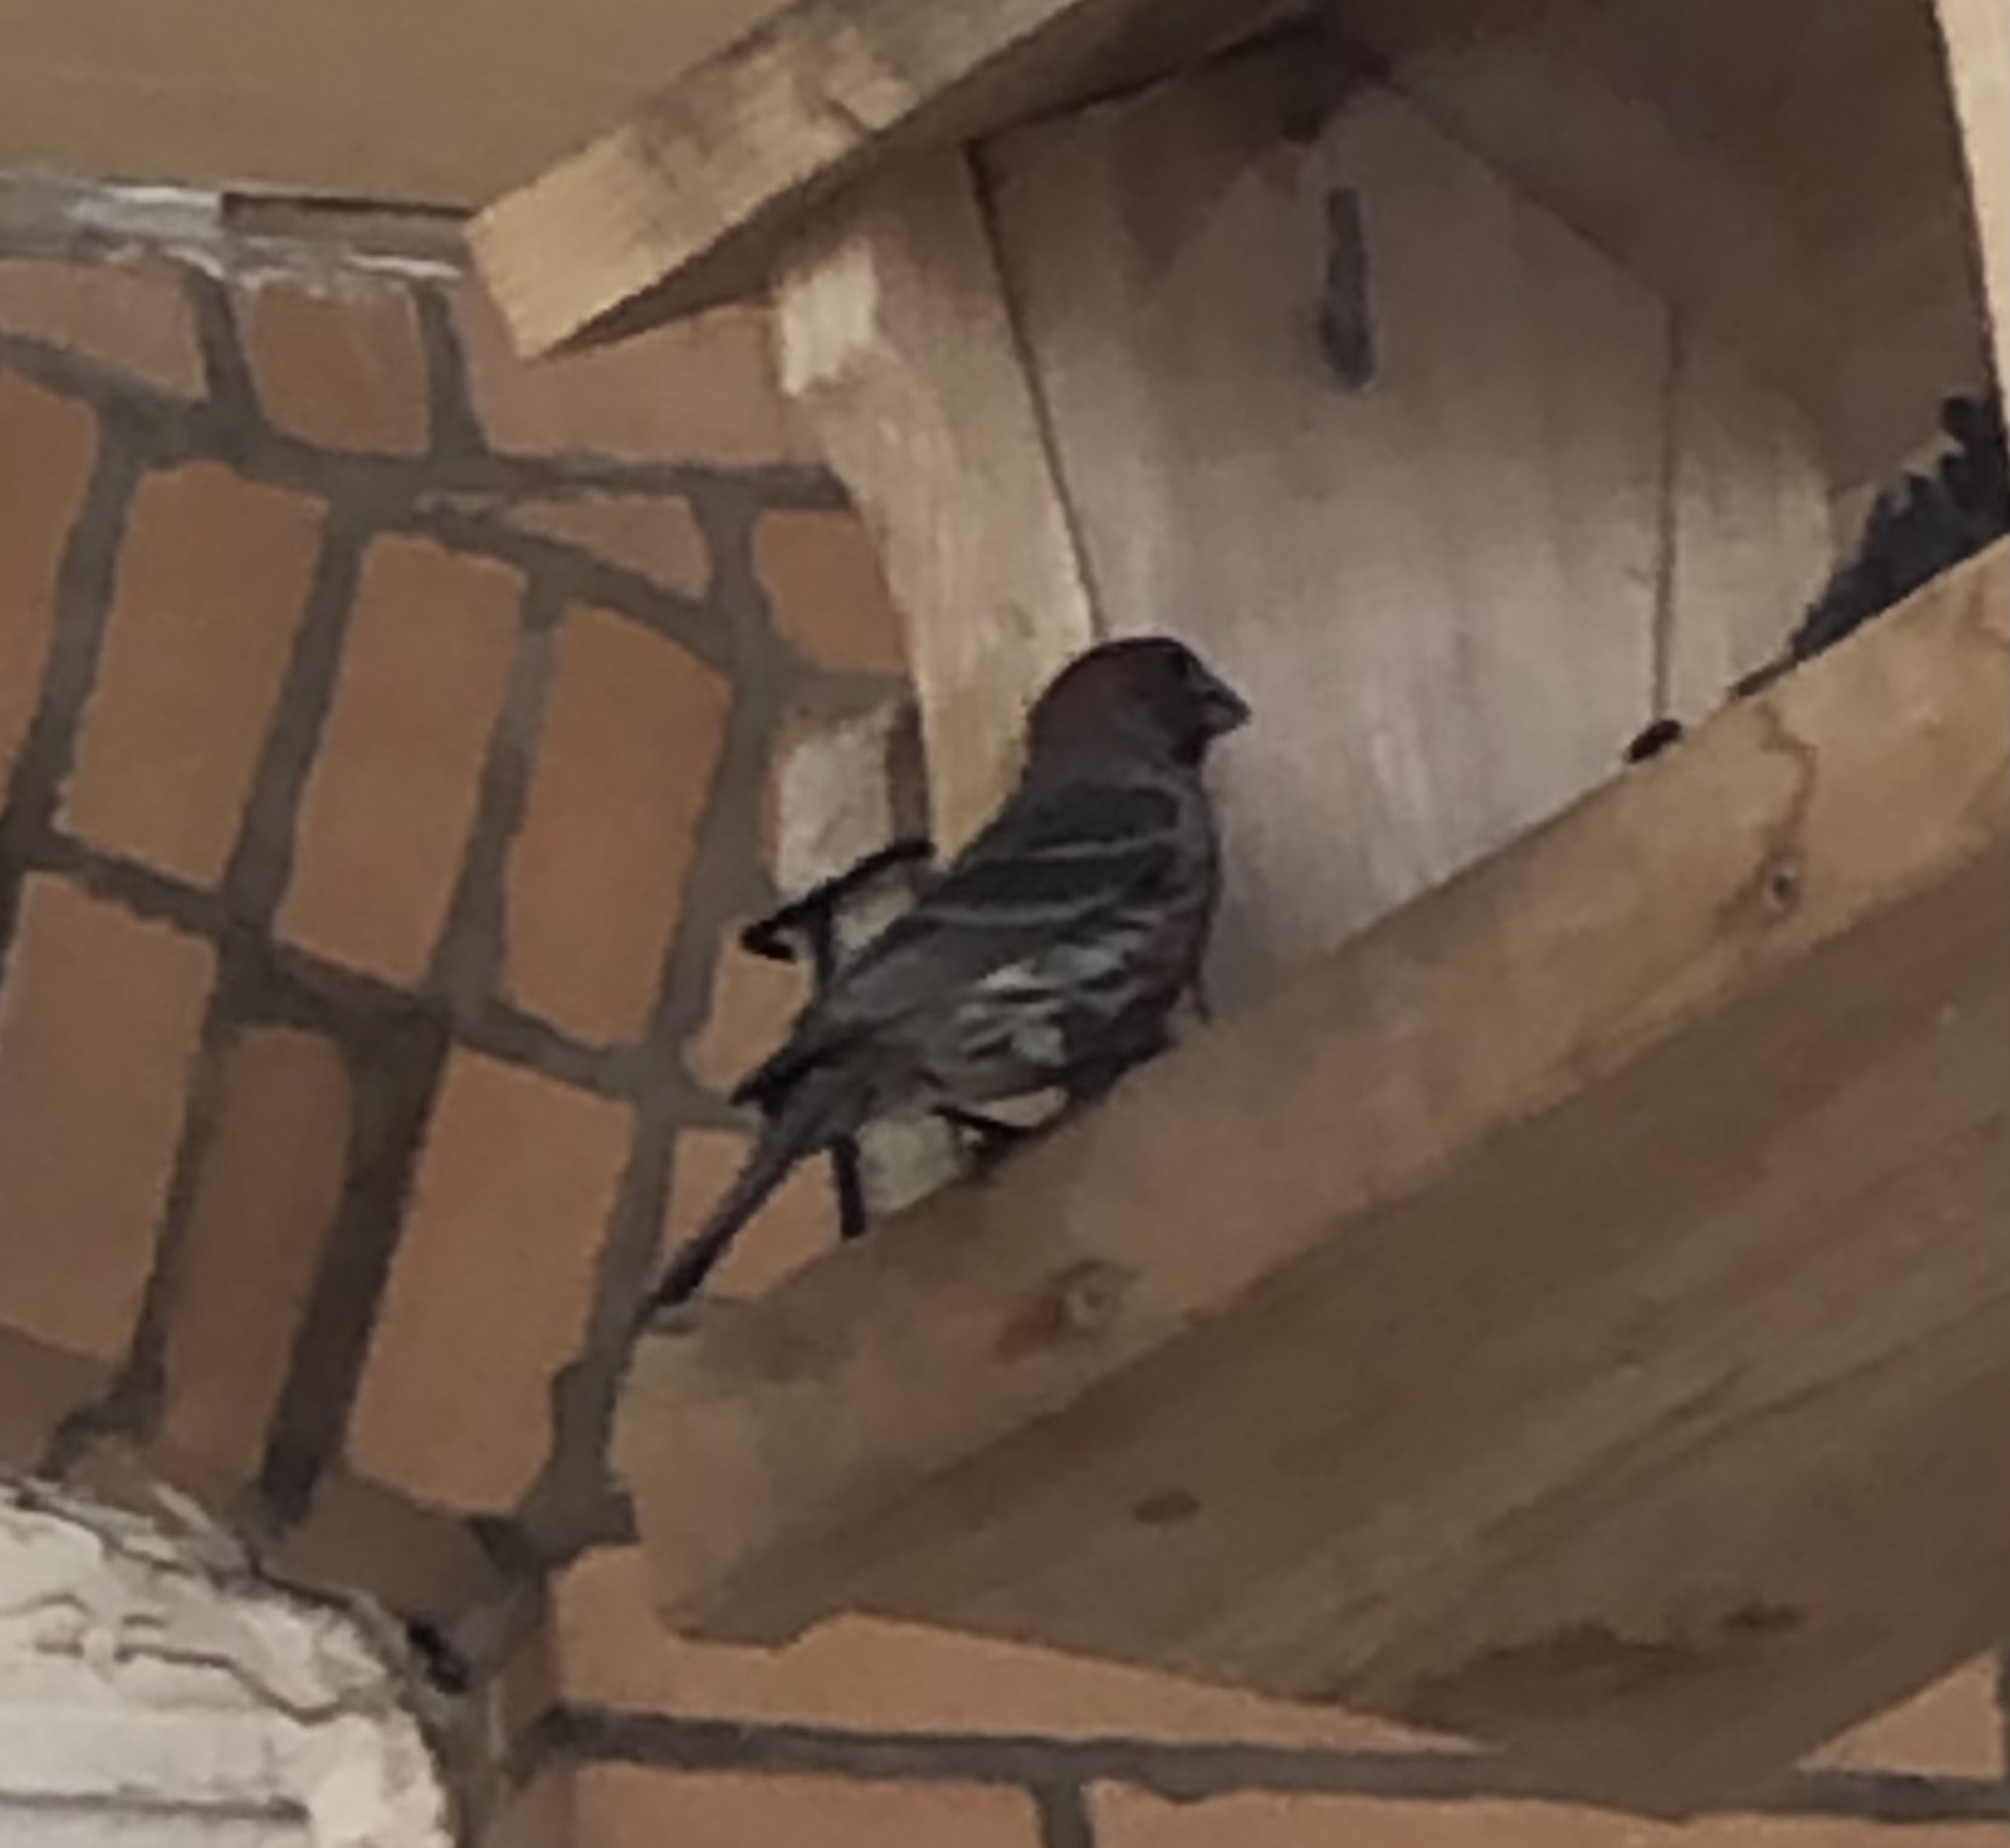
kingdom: Animalia
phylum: Chordata
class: Aves
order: Passeriformes
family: Fringillidae
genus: Haemorhous
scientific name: Haemorhous mexicanus
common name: House finch
